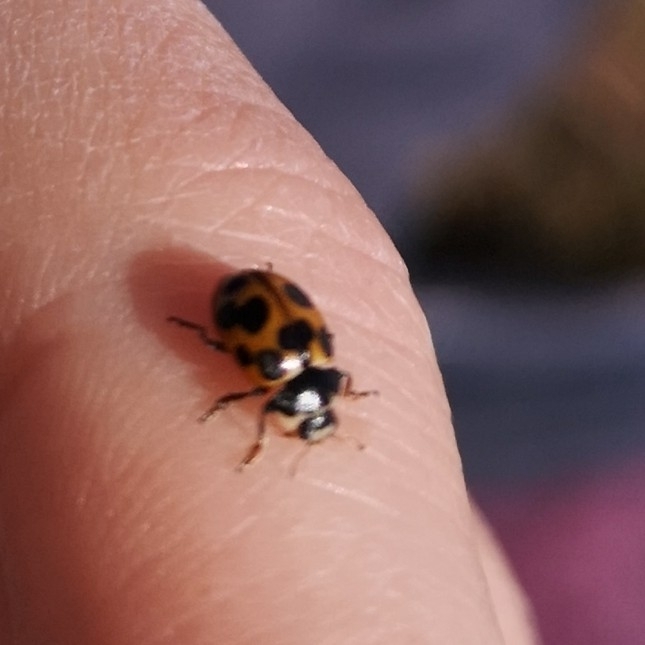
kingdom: Animalia
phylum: Arthropoda
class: Insecta
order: Coleoptera
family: Coccinellidae
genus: Ceratomegilla
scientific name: Ceratomegilla notata
